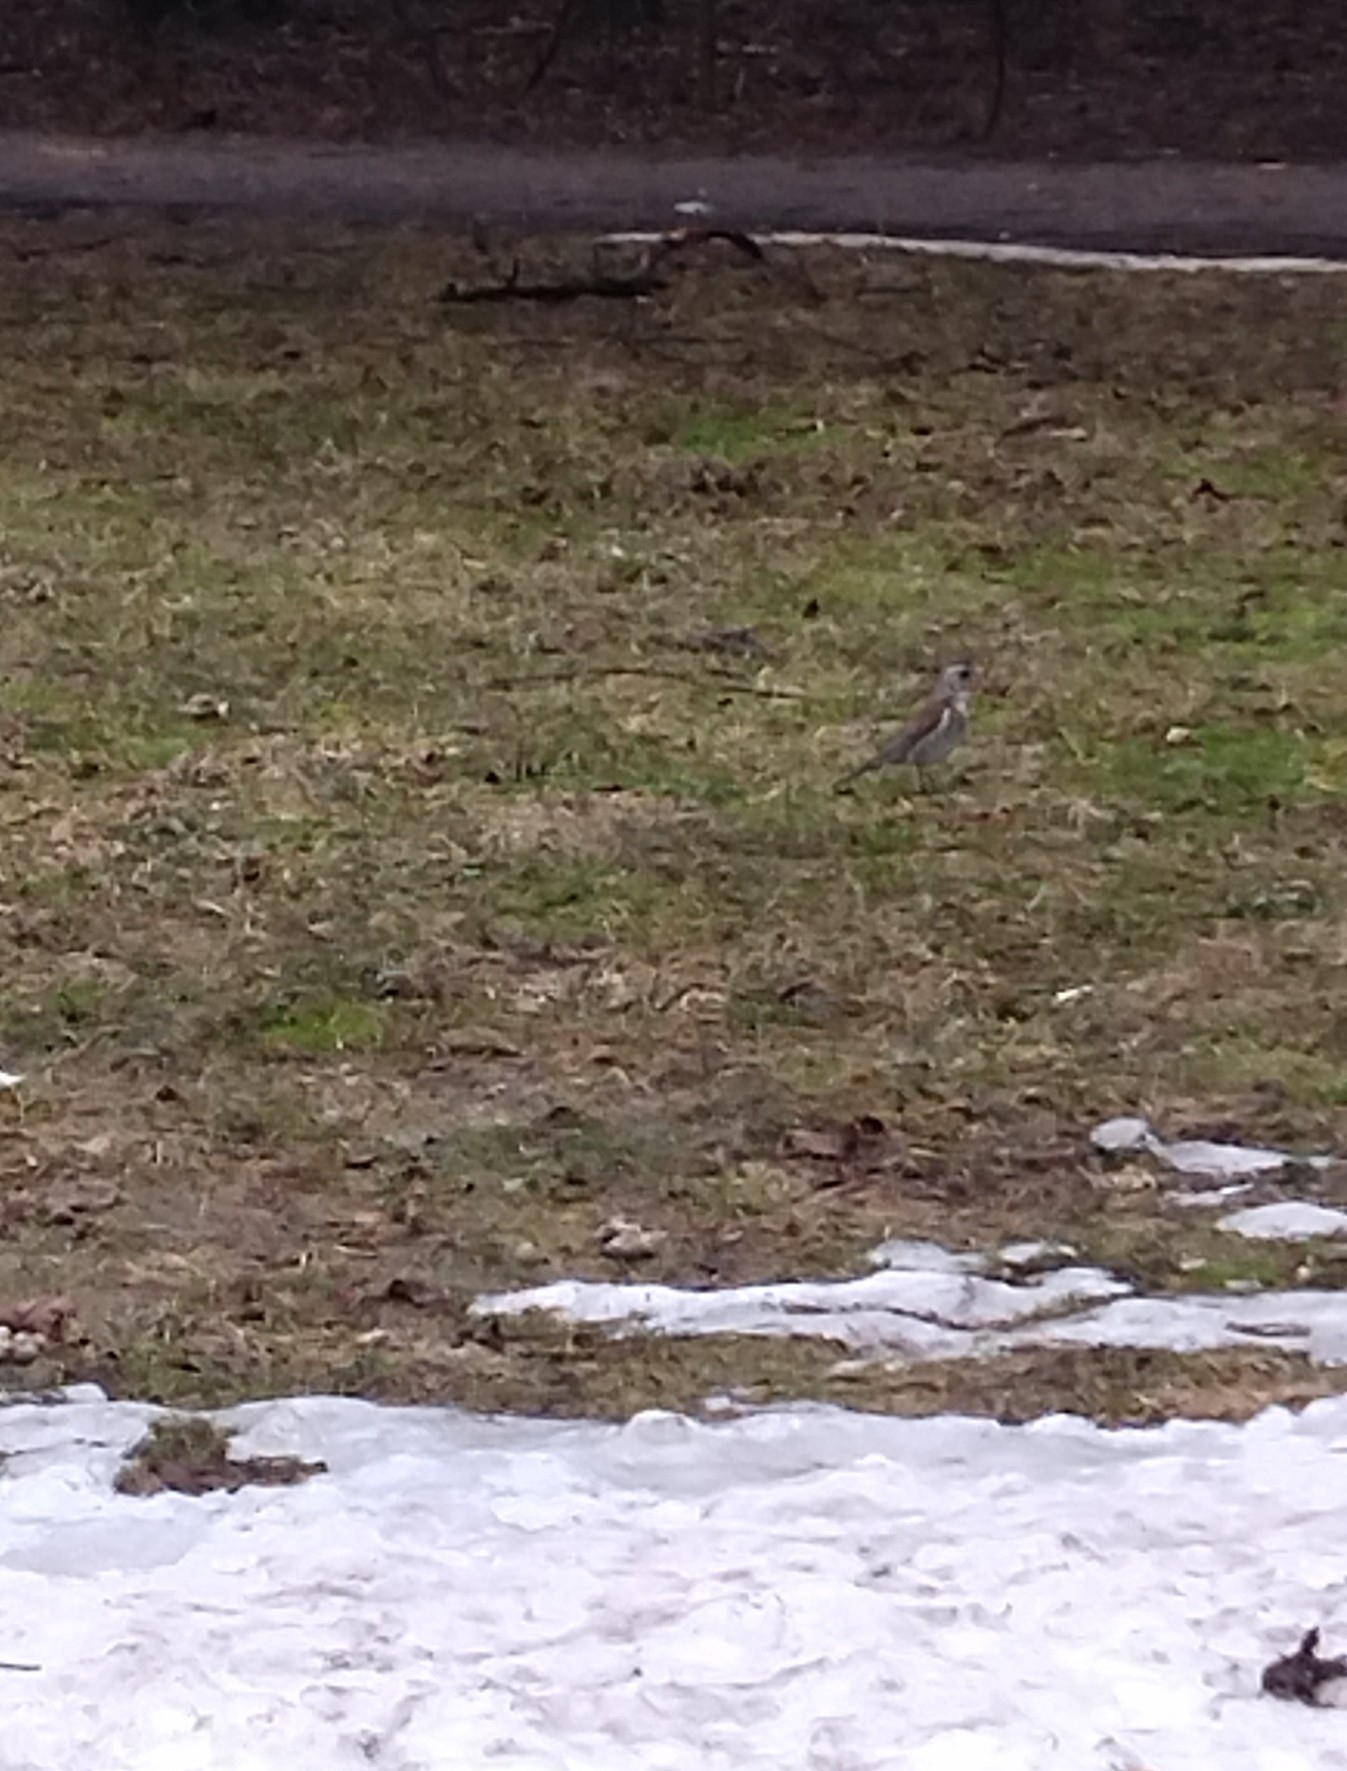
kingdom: Animalia
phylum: Chordata
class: Aves
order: Passeriformes
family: Turdidae
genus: Turdus
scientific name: Turdus pilaris
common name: Fieldfare
